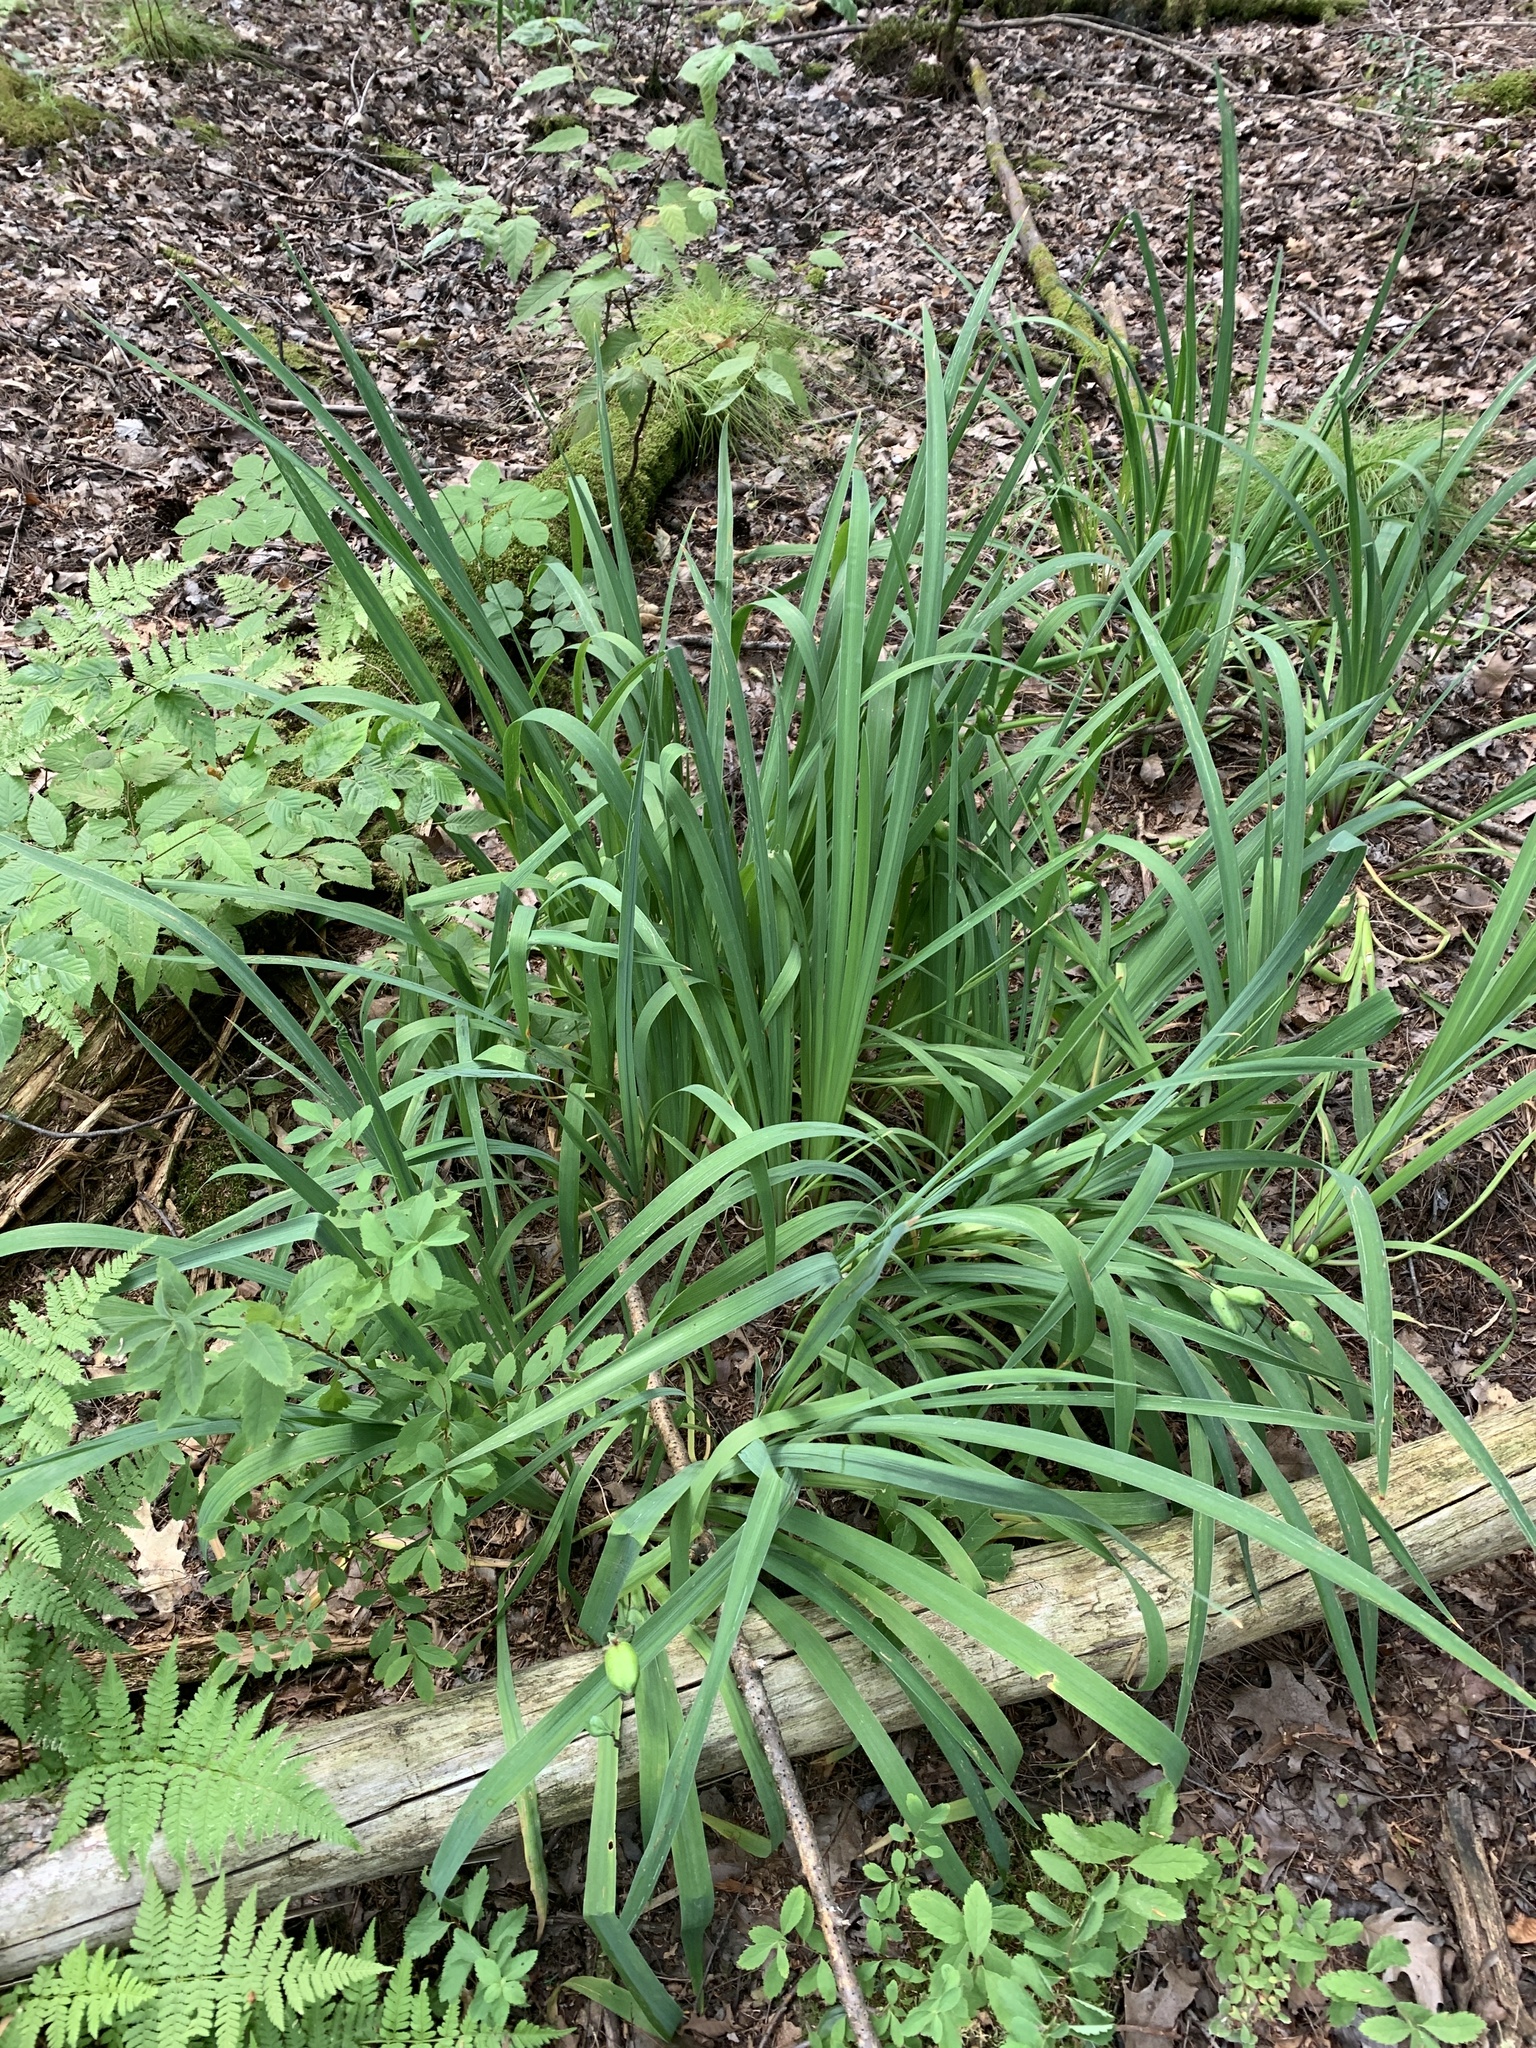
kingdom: Plantae
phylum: Tracheophyta
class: Liliopsida
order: Asparagales
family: Iridaceae
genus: Iris
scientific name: Iris versicolor
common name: Purple iris
